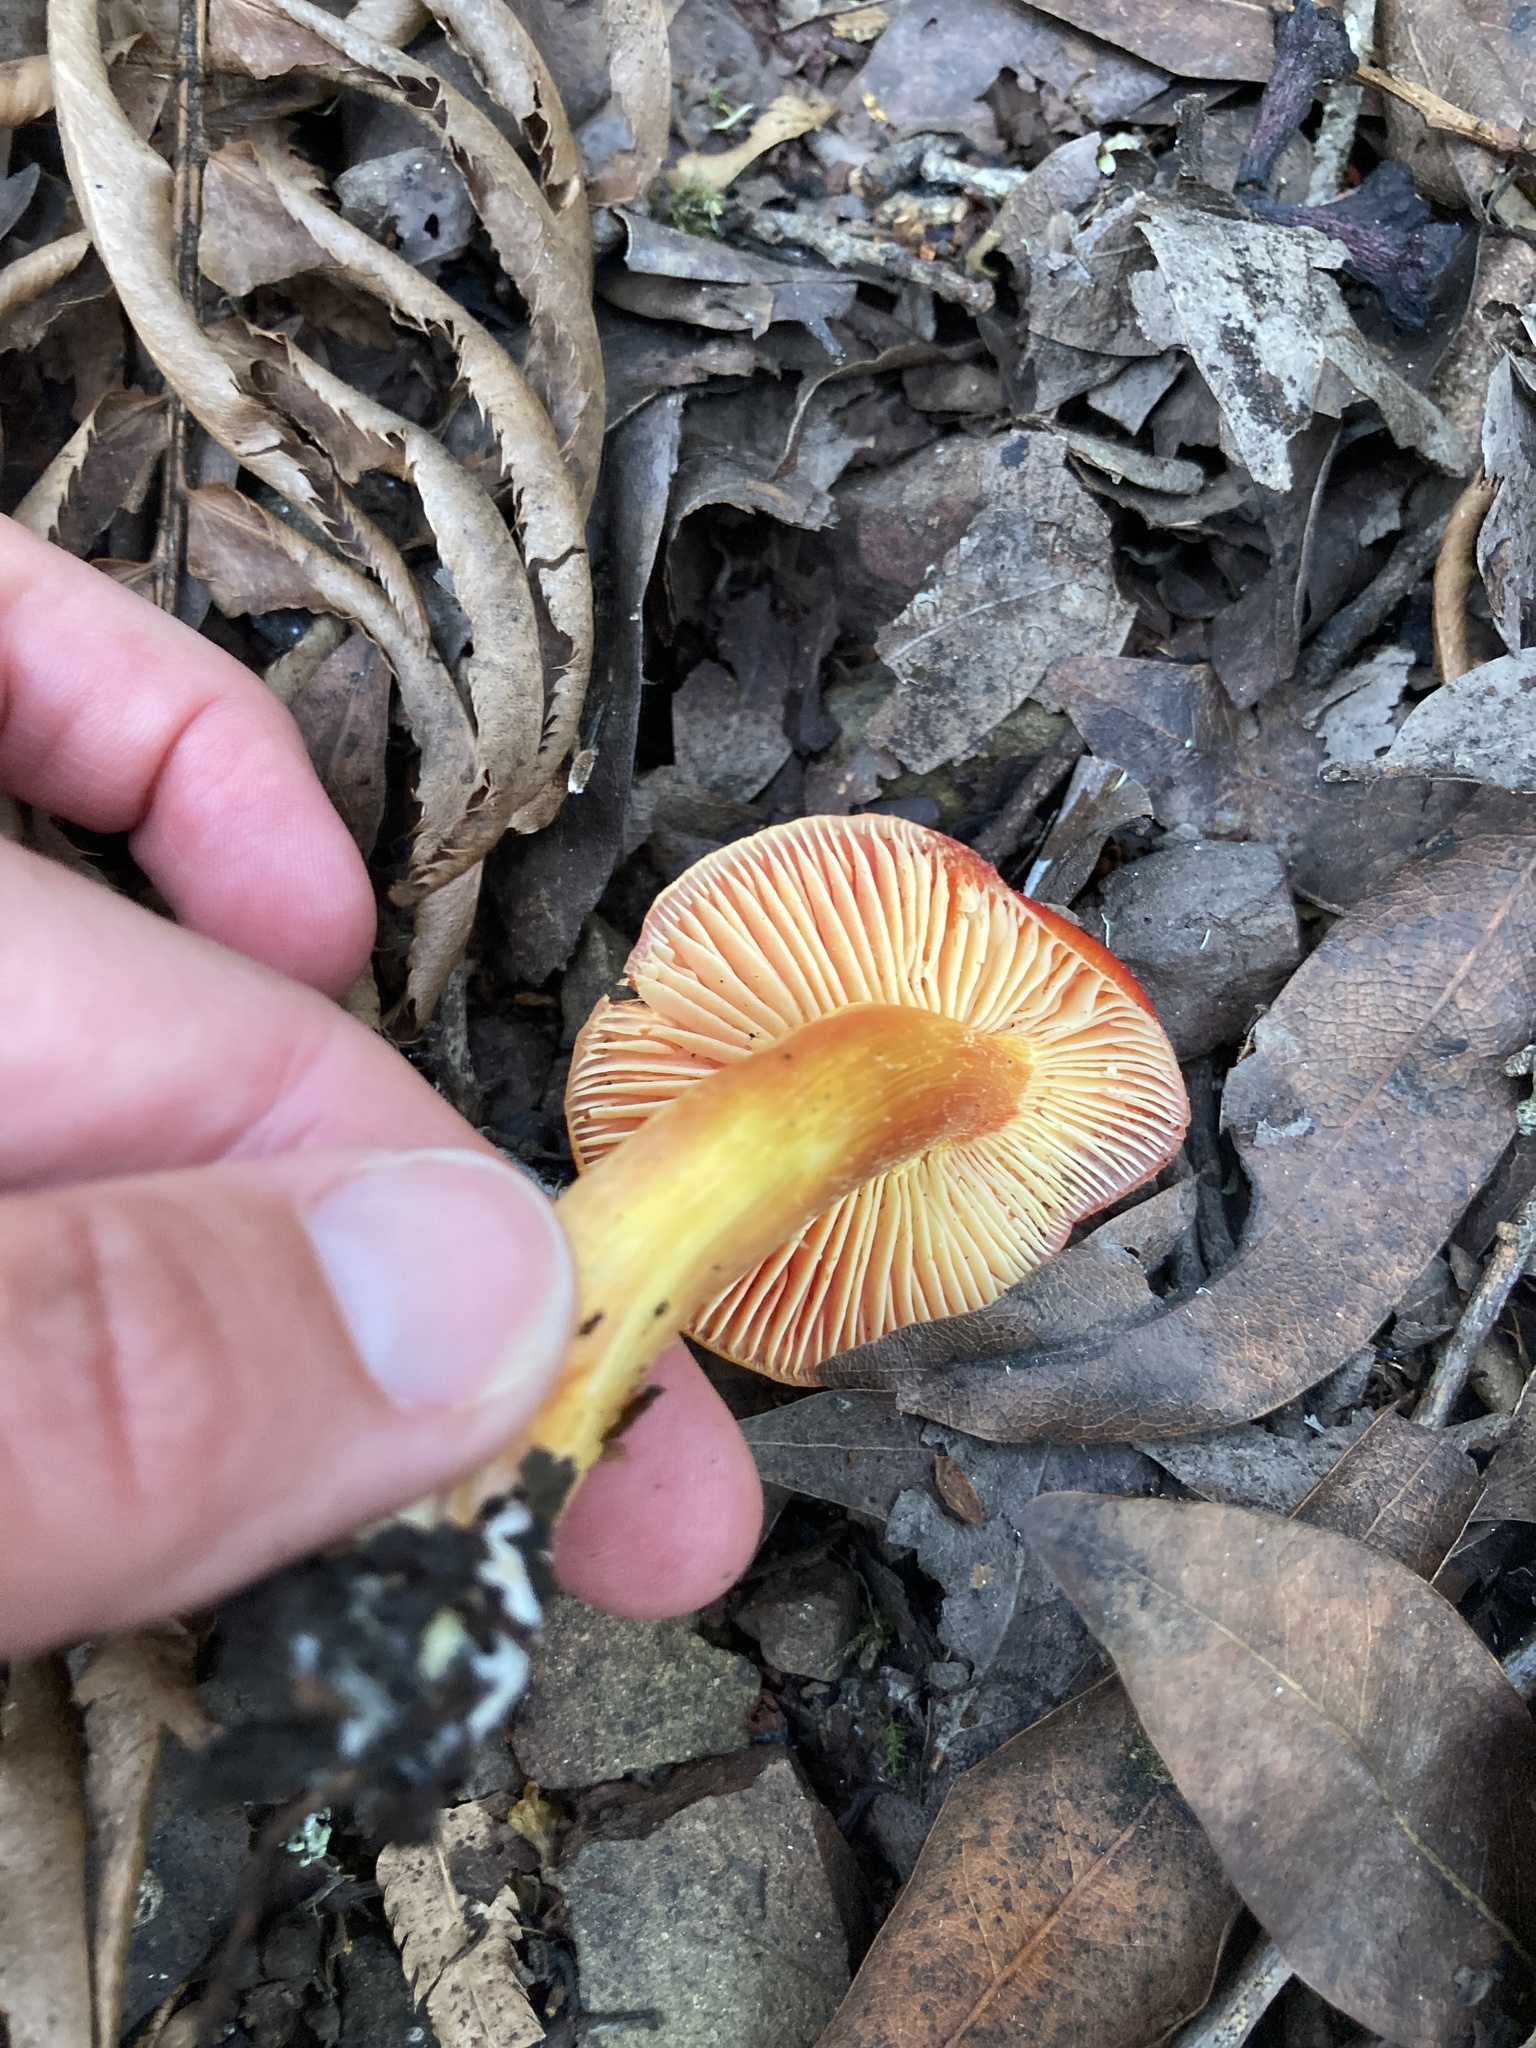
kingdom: Fungi
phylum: Basidiomycota
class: Agaricomycetes
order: Agaricales
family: Hygrophoraceae
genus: Hygrocybe
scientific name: Hygrocybe laetissima
